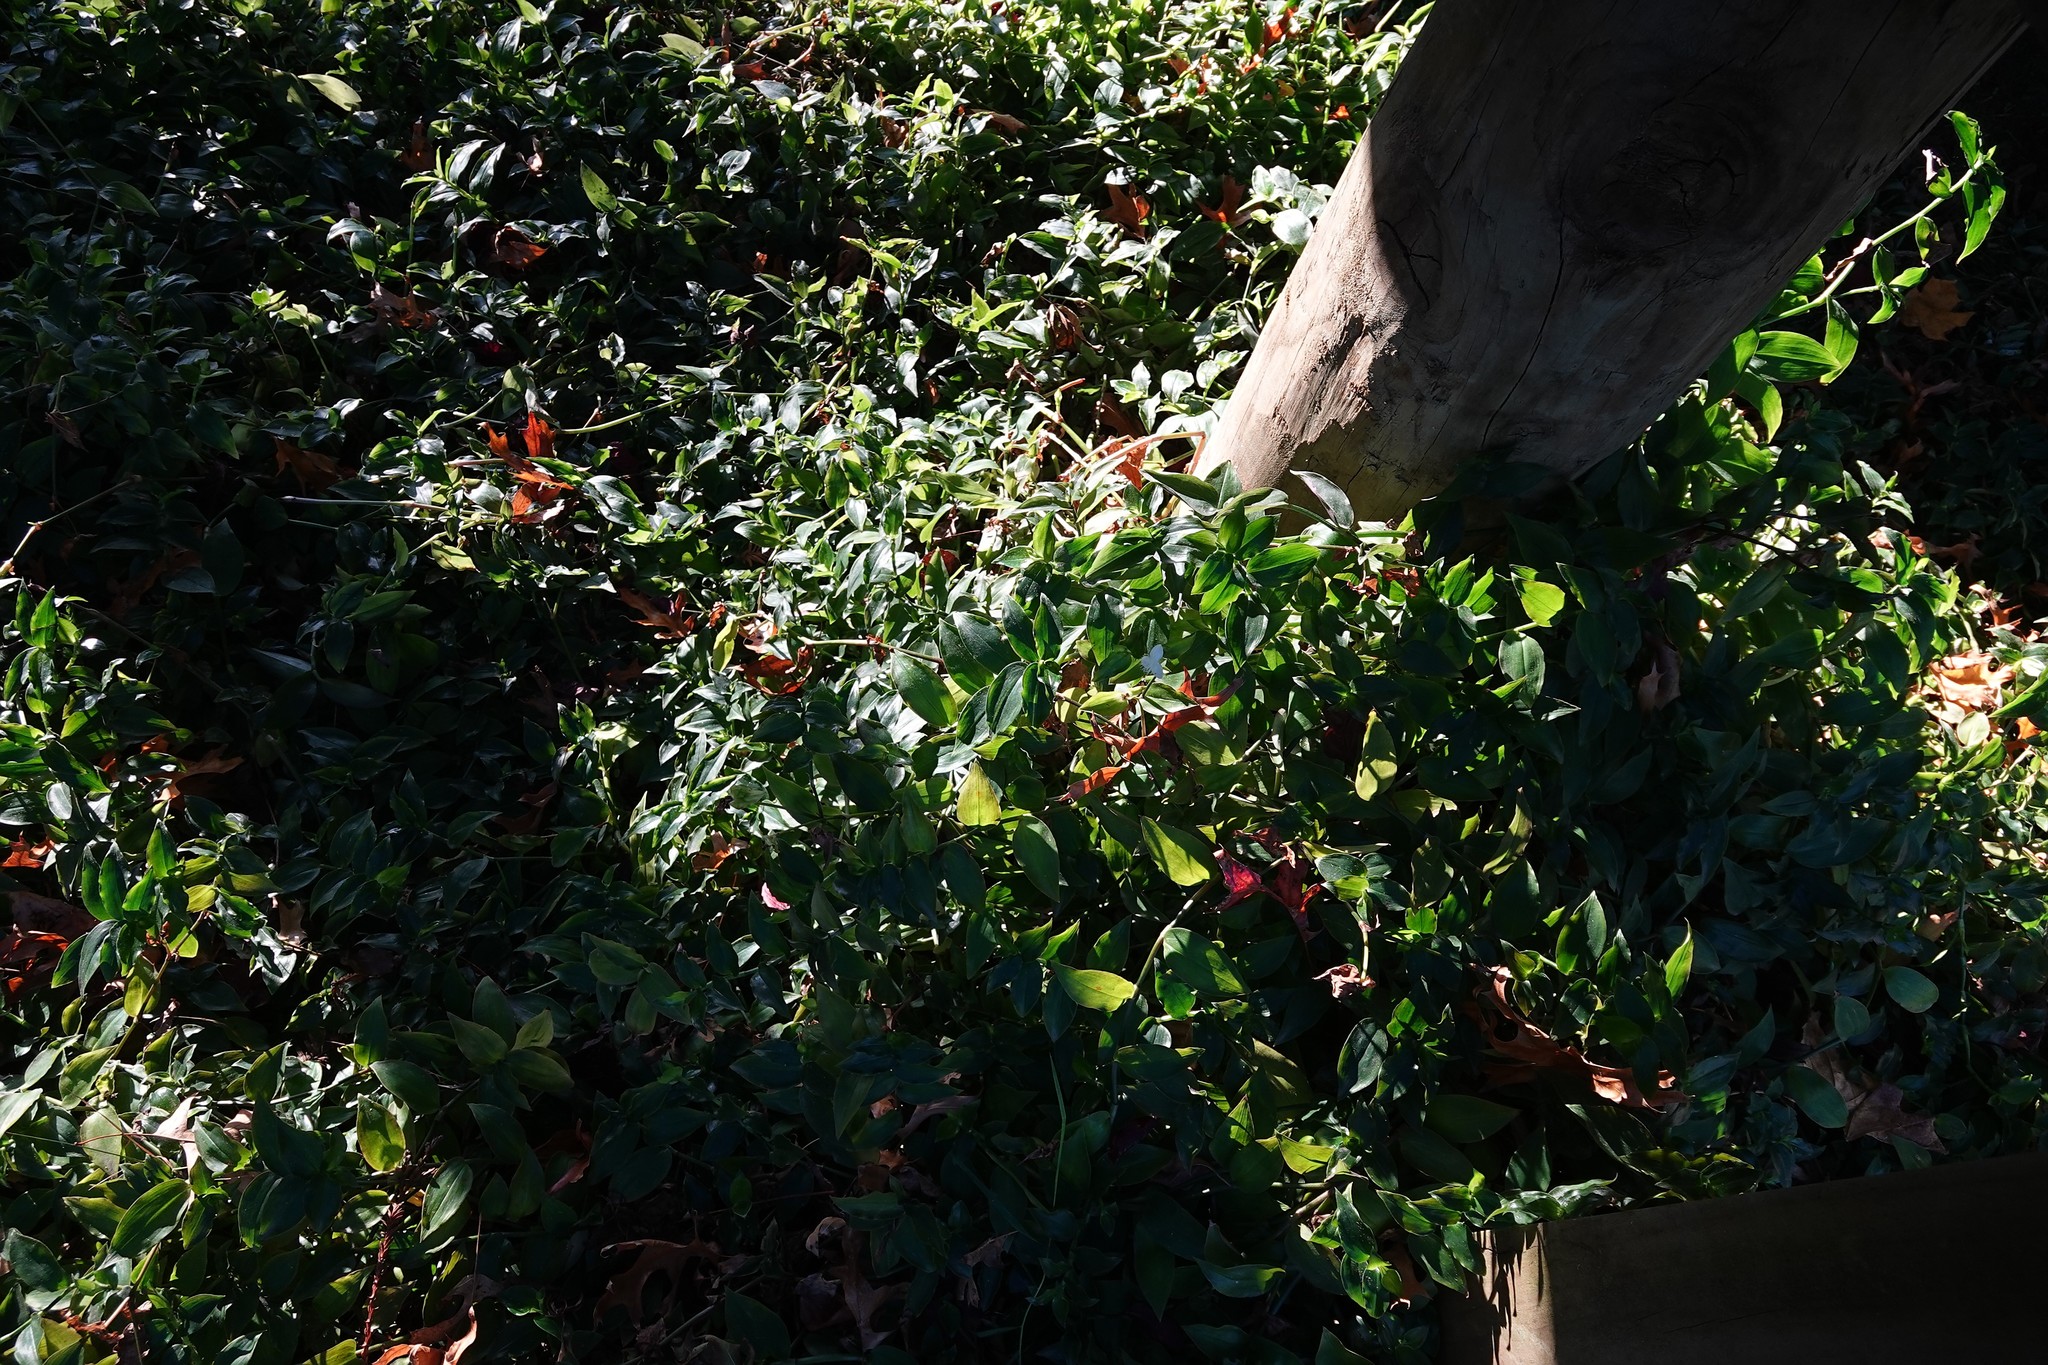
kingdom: Plantae
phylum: Tracheophyta
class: Liliopsida
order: Commelinales
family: Commelinaceae
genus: Tradescantia
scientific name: Tradescantia fluminensis
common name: Wandering-jew
